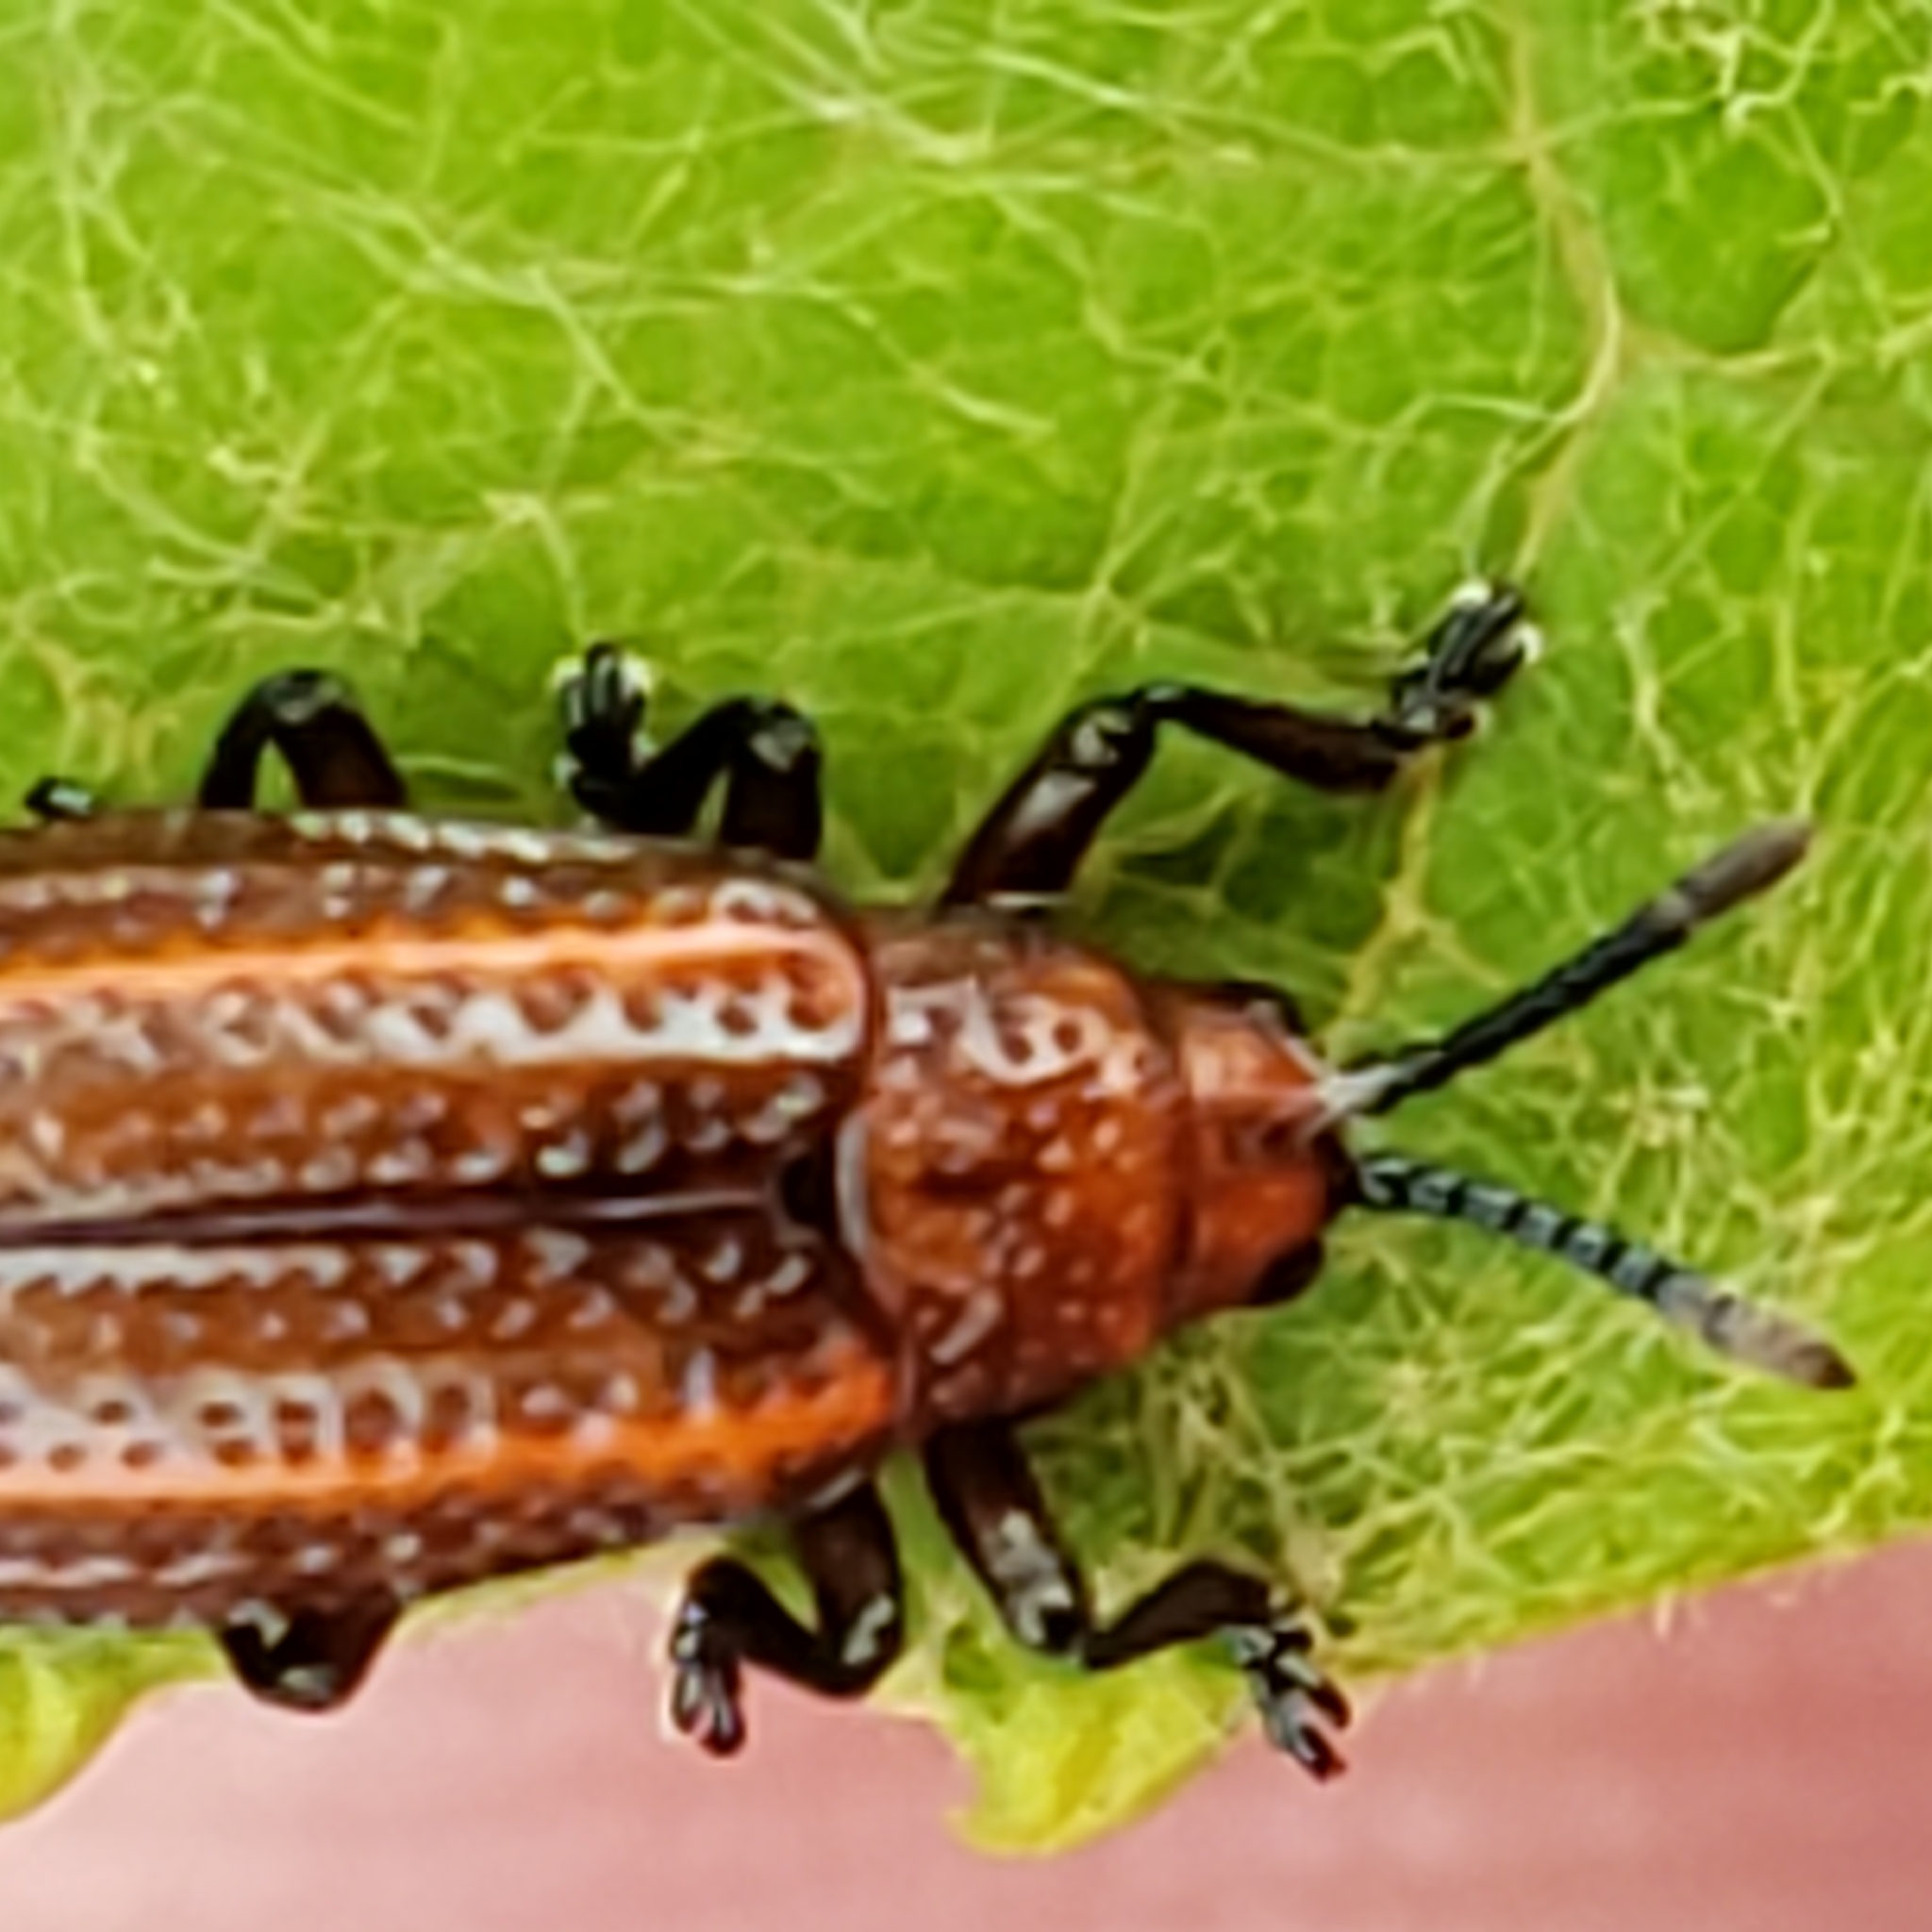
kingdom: Animalia
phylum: Arthropoda
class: Insecta
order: Coleoptera
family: Chrysomelidae
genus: Microrhopala
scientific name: Microrhopala vittata
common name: Goldenrod leaf miner beetle
